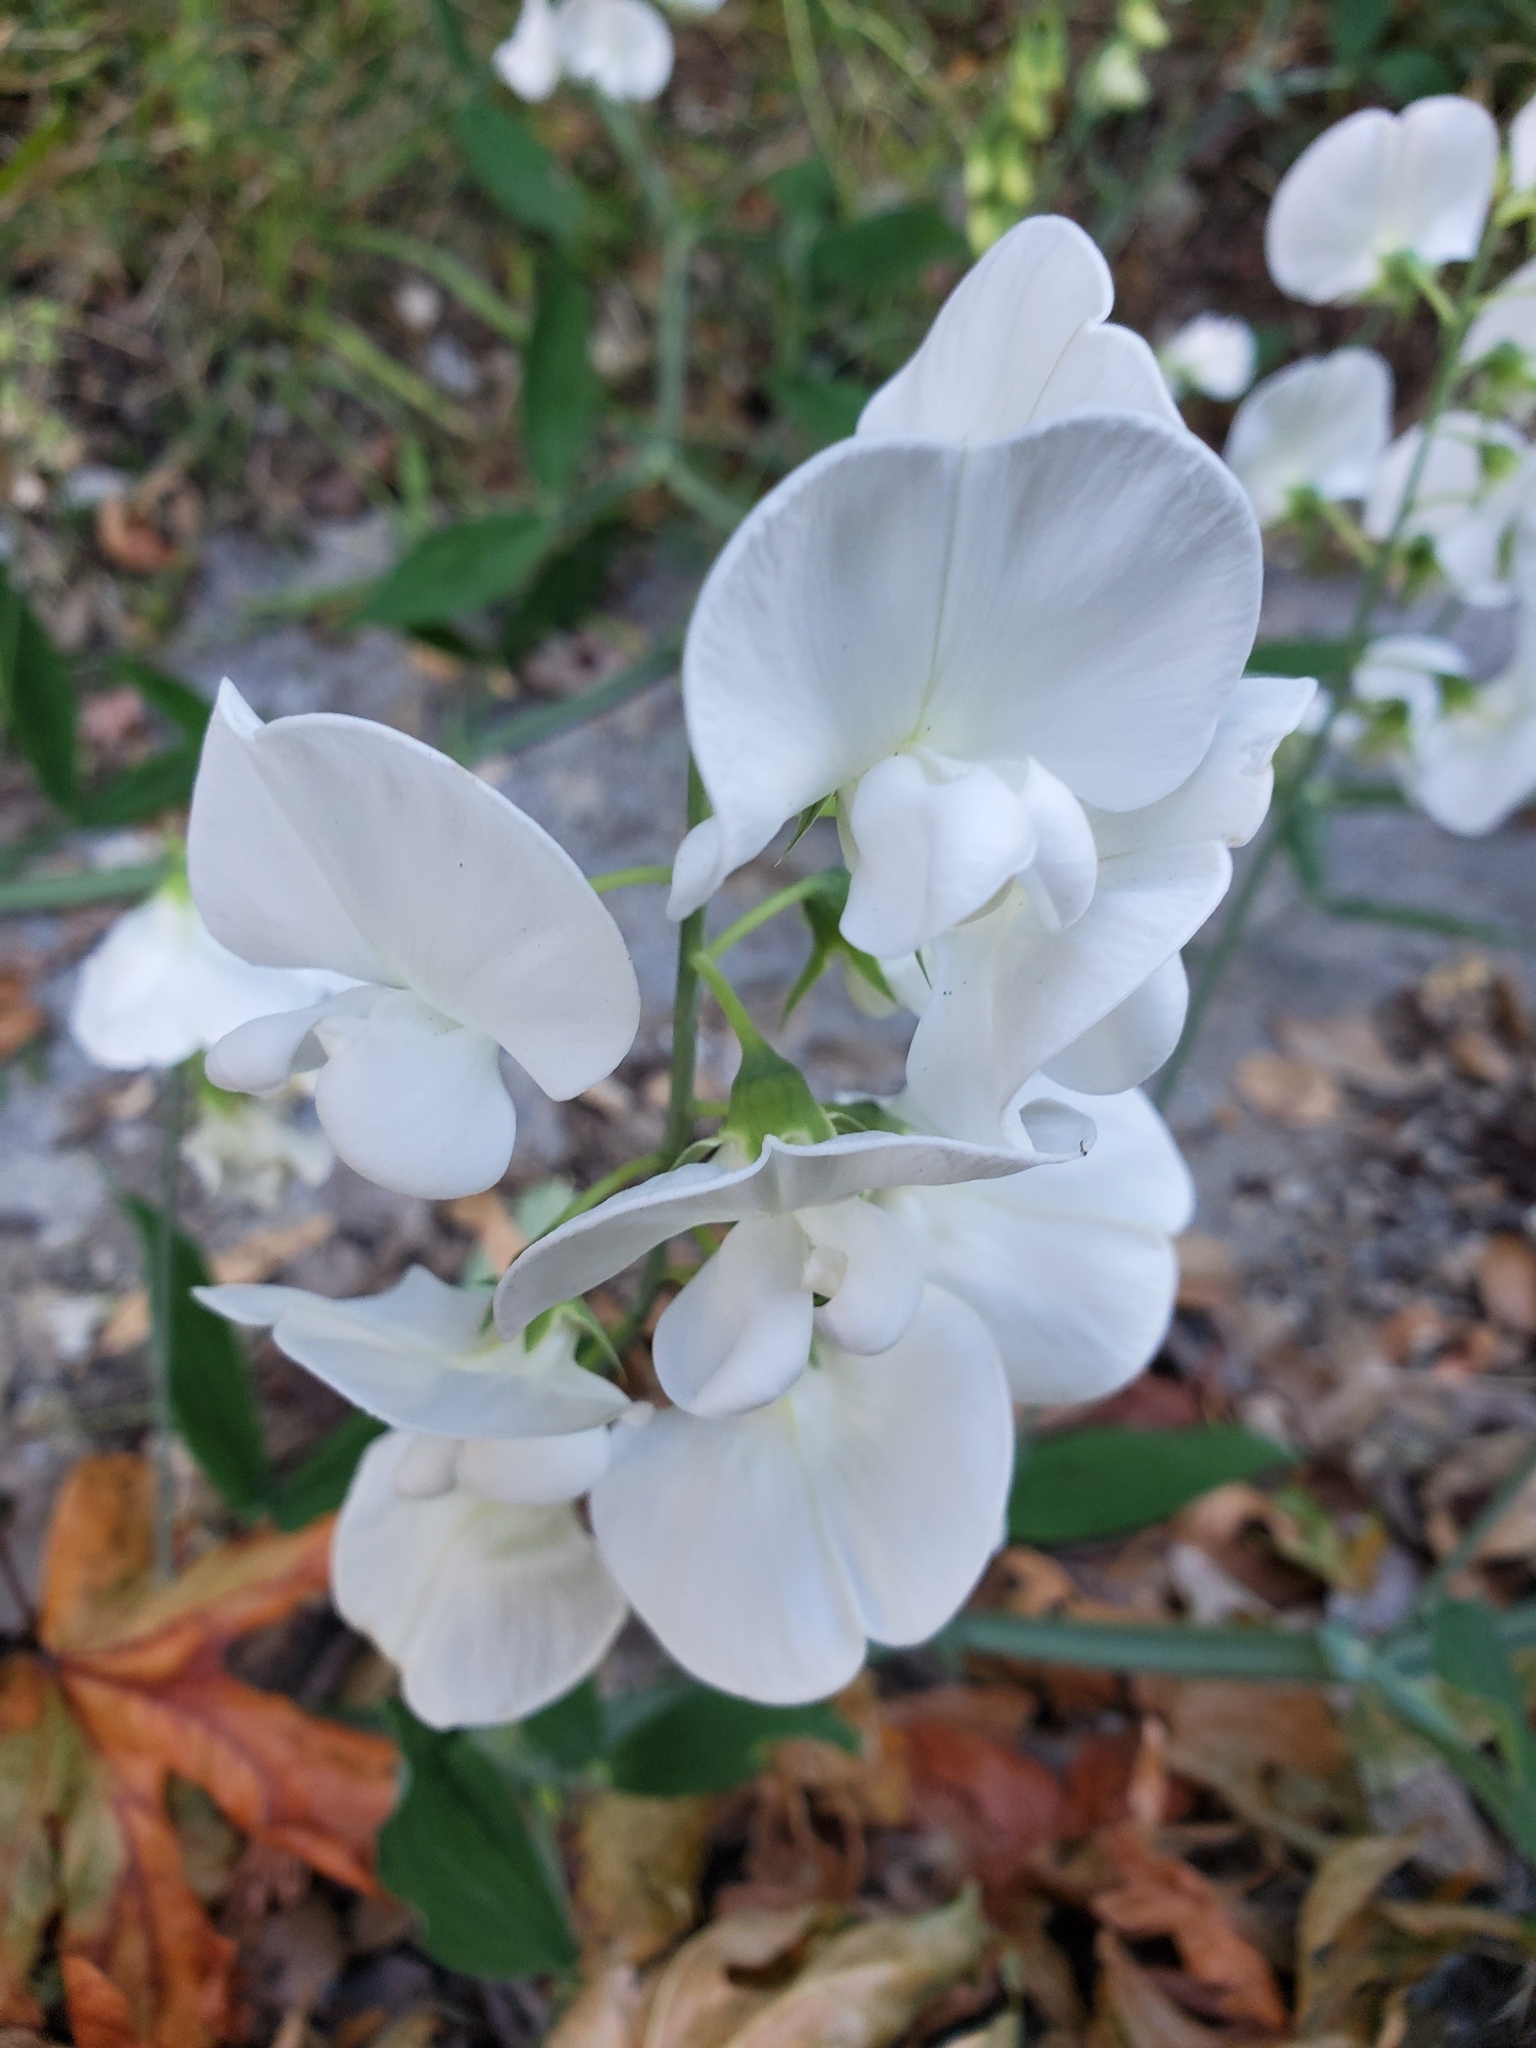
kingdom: Plantae
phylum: Tracheophyta
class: Magnoliopsida
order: Fabales
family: Fabaceae
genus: Lathyrus
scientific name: Lathyrus latifolius
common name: Perennial pea
